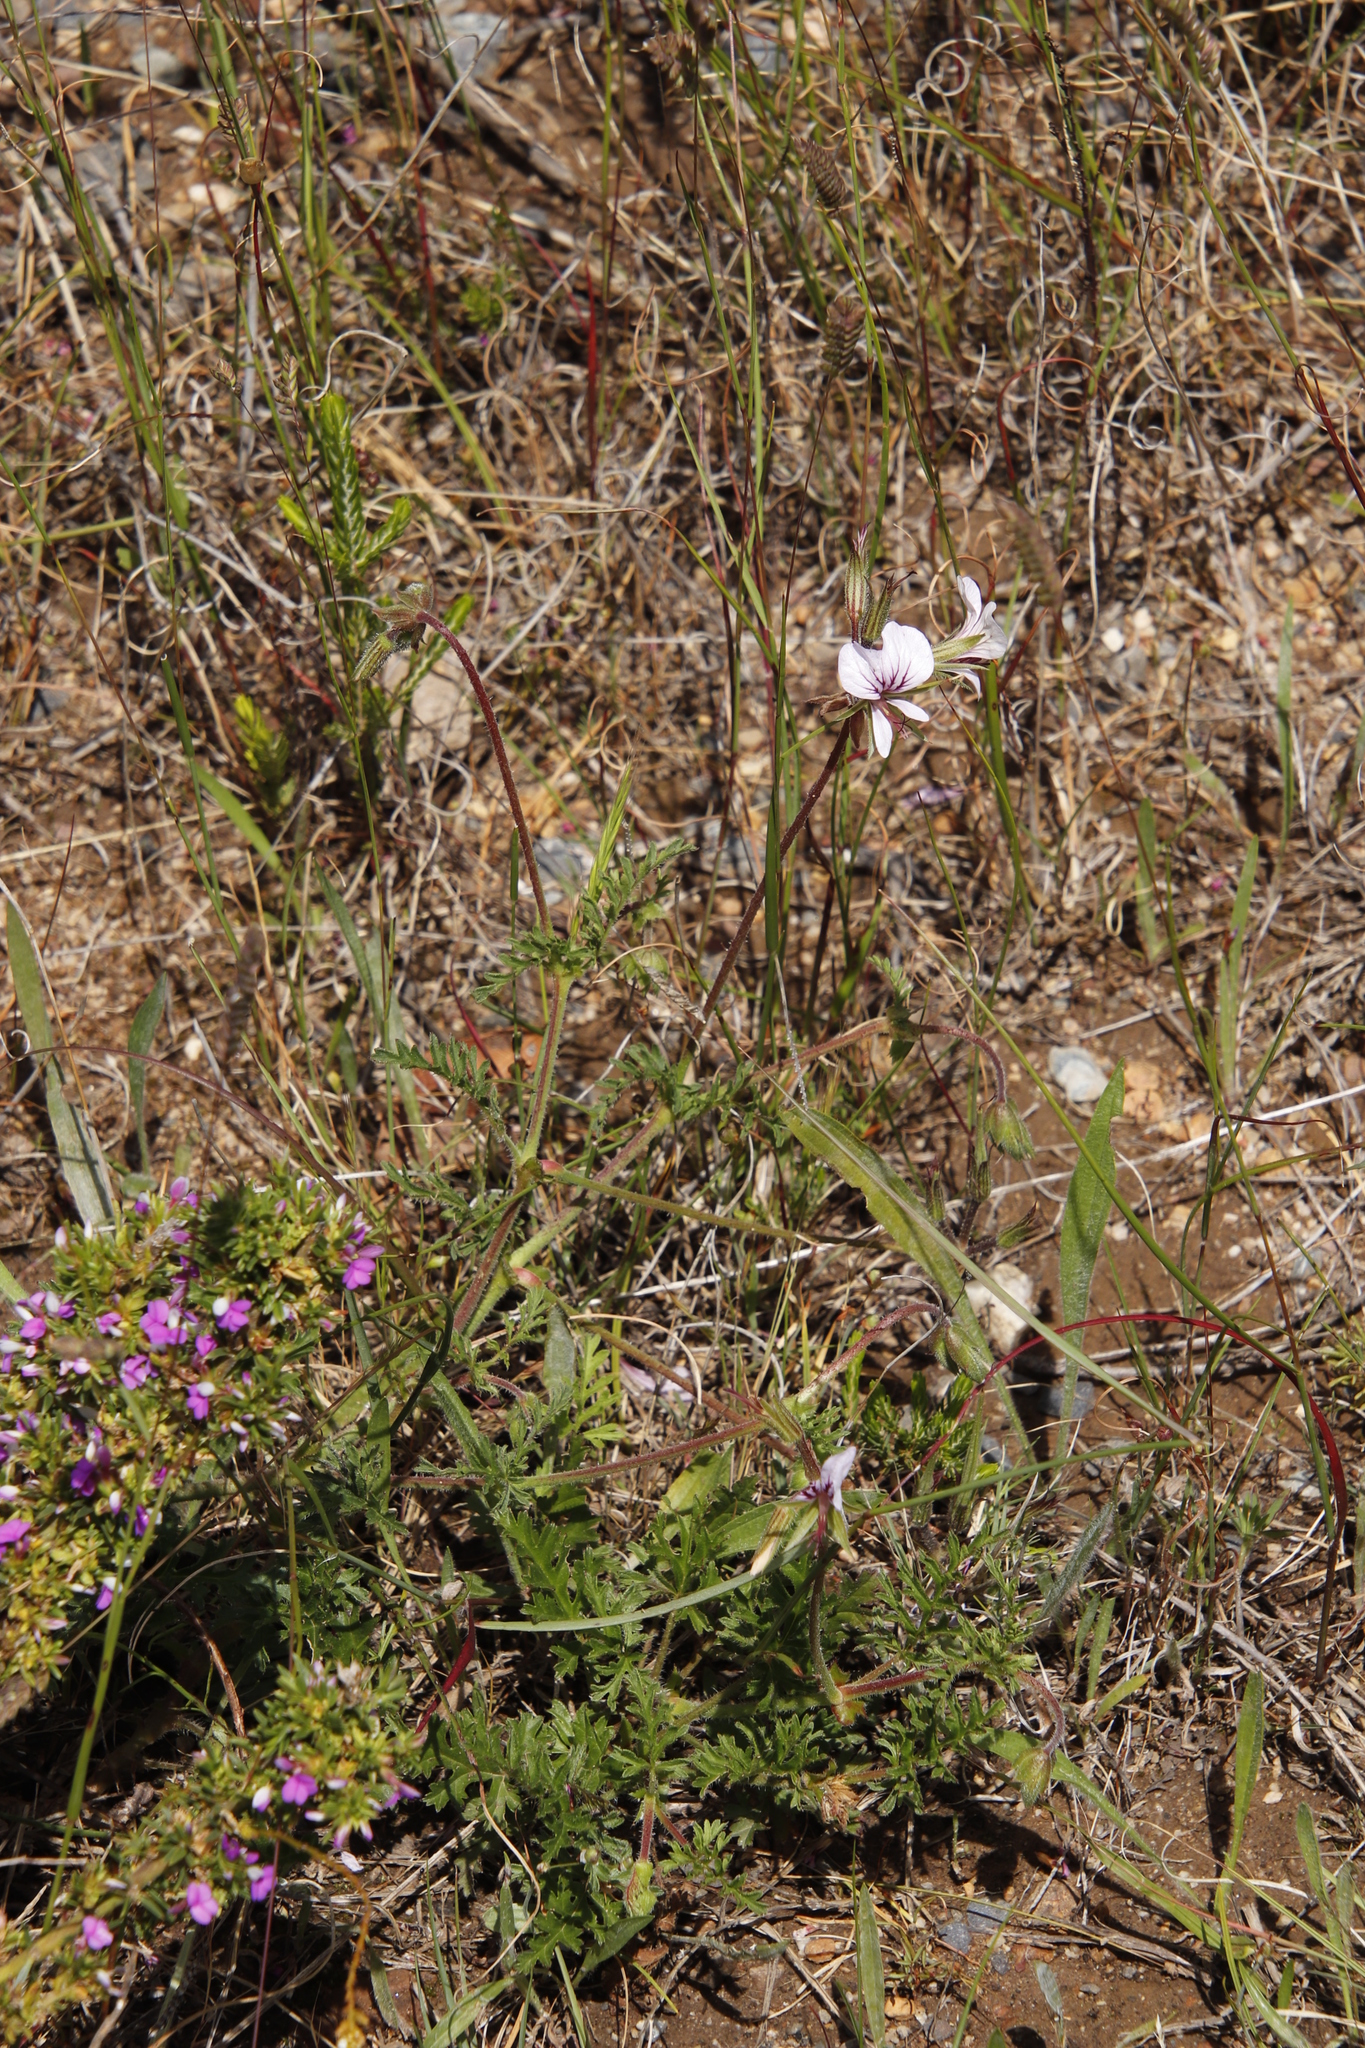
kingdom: Plantae
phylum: Tracheophyta
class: Magnoliopsida
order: Geraniales
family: Geraniaceae
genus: Pelargonium
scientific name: Pelargonium myrrhifolium
